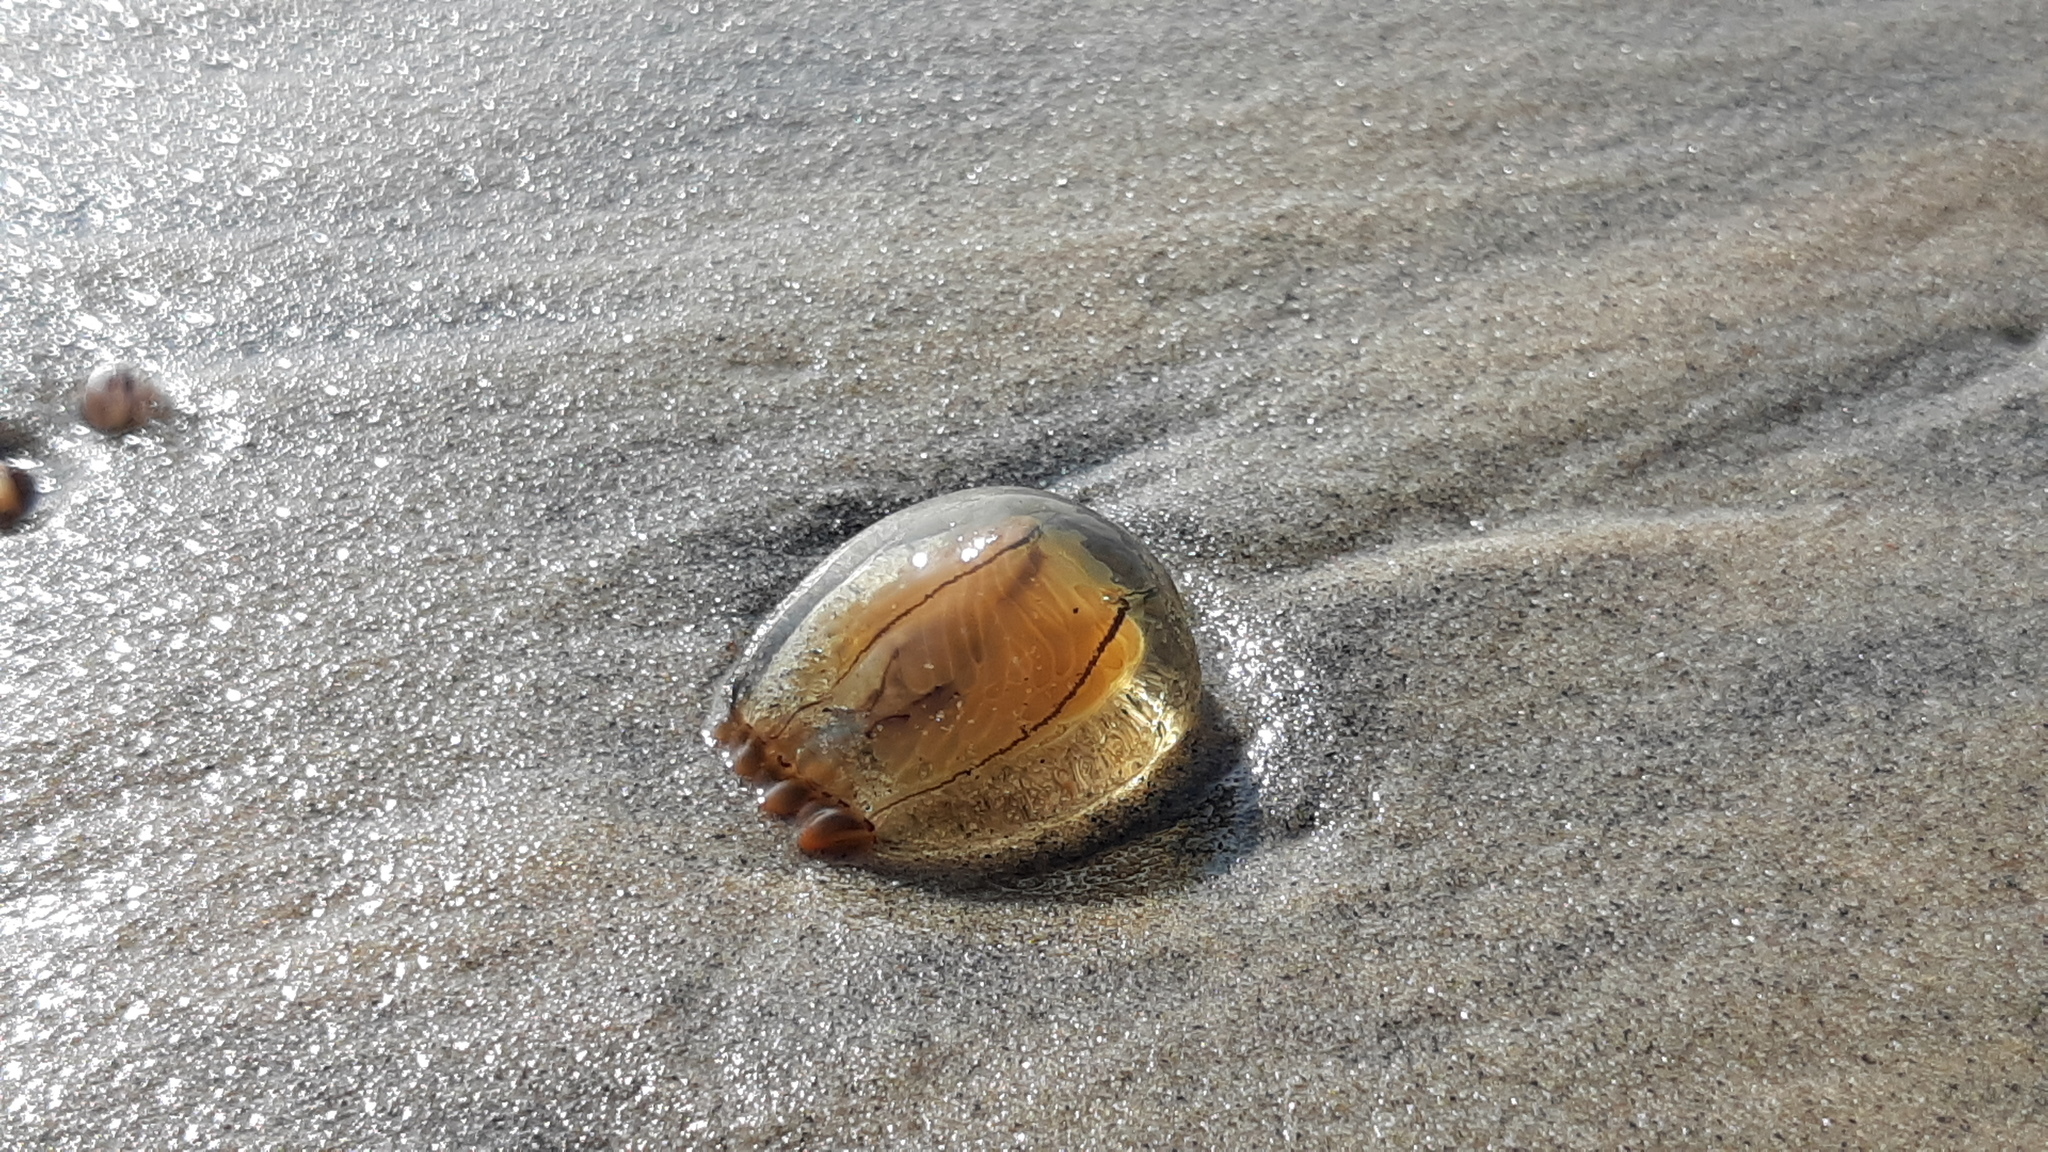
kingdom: Animalia
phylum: Cnidaria
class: Hydrozoa
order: Anthoathecata
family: Corynidae
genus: Polyorchis
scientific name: Polyorchis haplus
